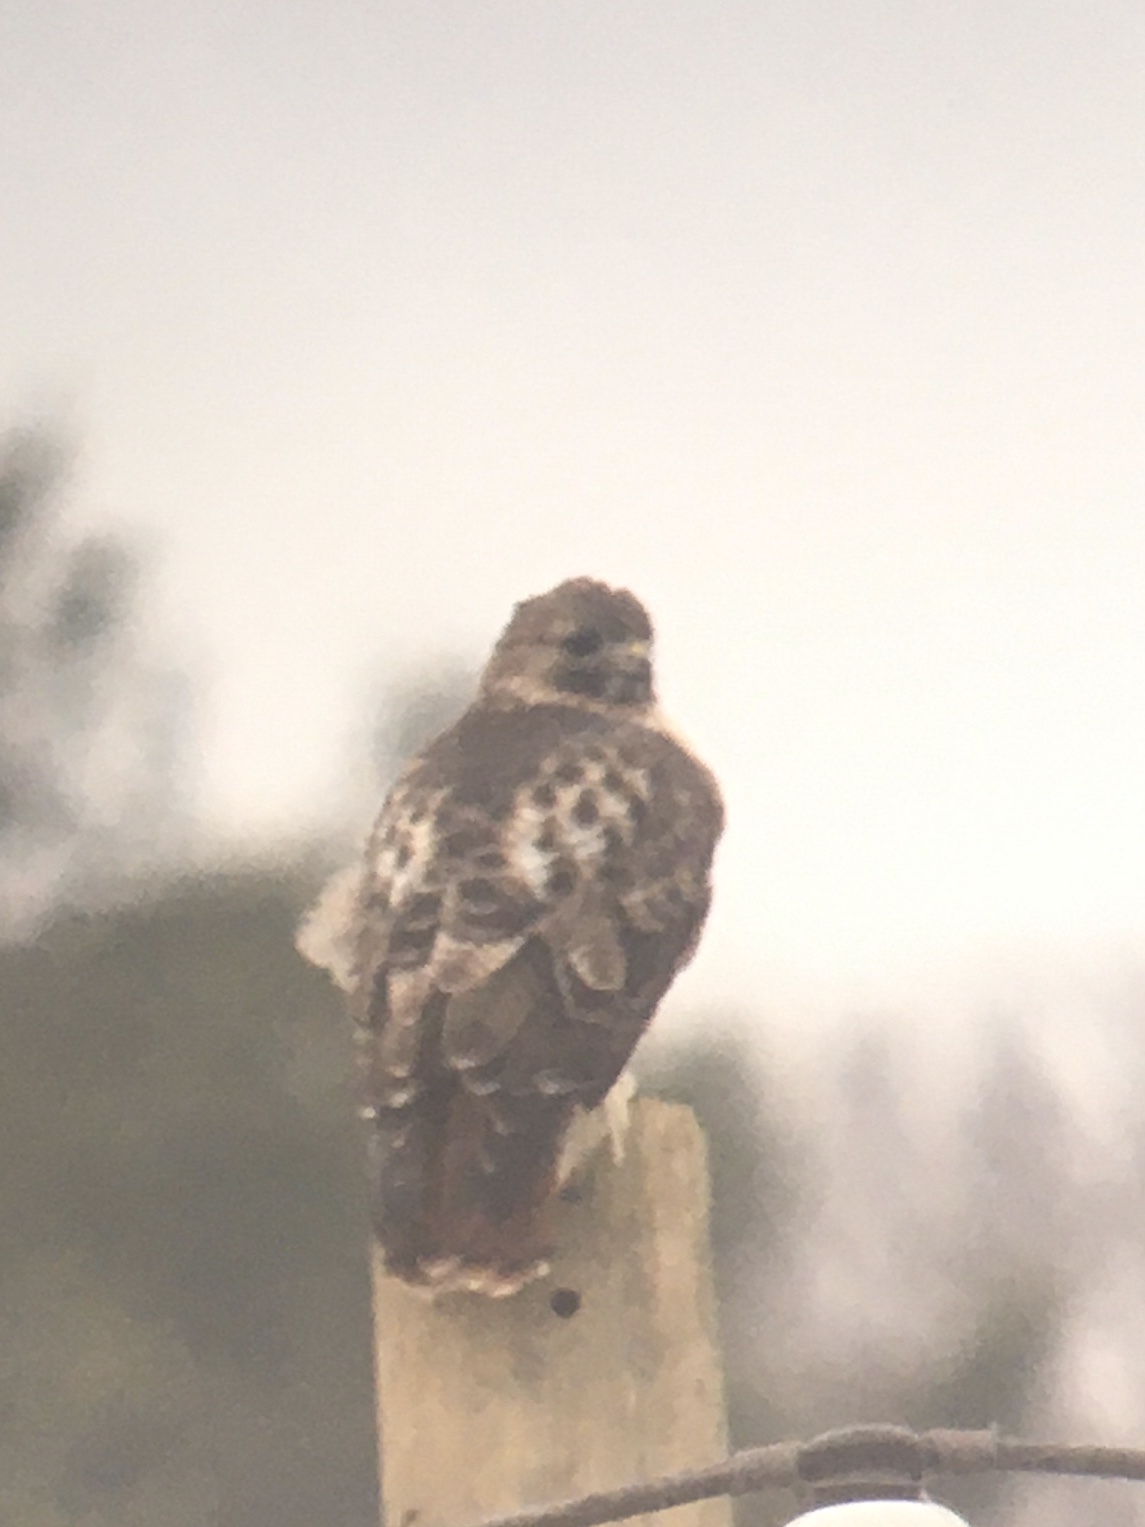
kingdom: Animalia
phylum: Chordata
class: Aves
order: Accipitriformes
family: Accipitridae
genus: Buteo
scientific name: Buteo jamaicensis
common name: Red-tailed hawk
